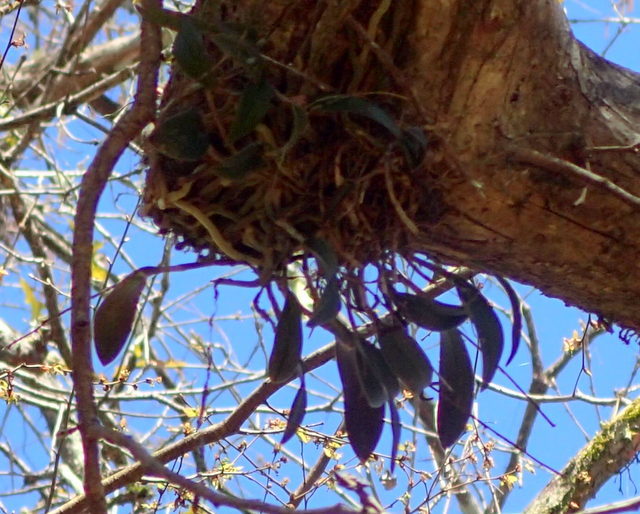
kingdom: Plantae
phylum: Tracheophyta
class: Liliopsida
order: Asparagales
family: Orchidaceae
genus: Epidendrum
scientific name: Epidendrum conopseum
